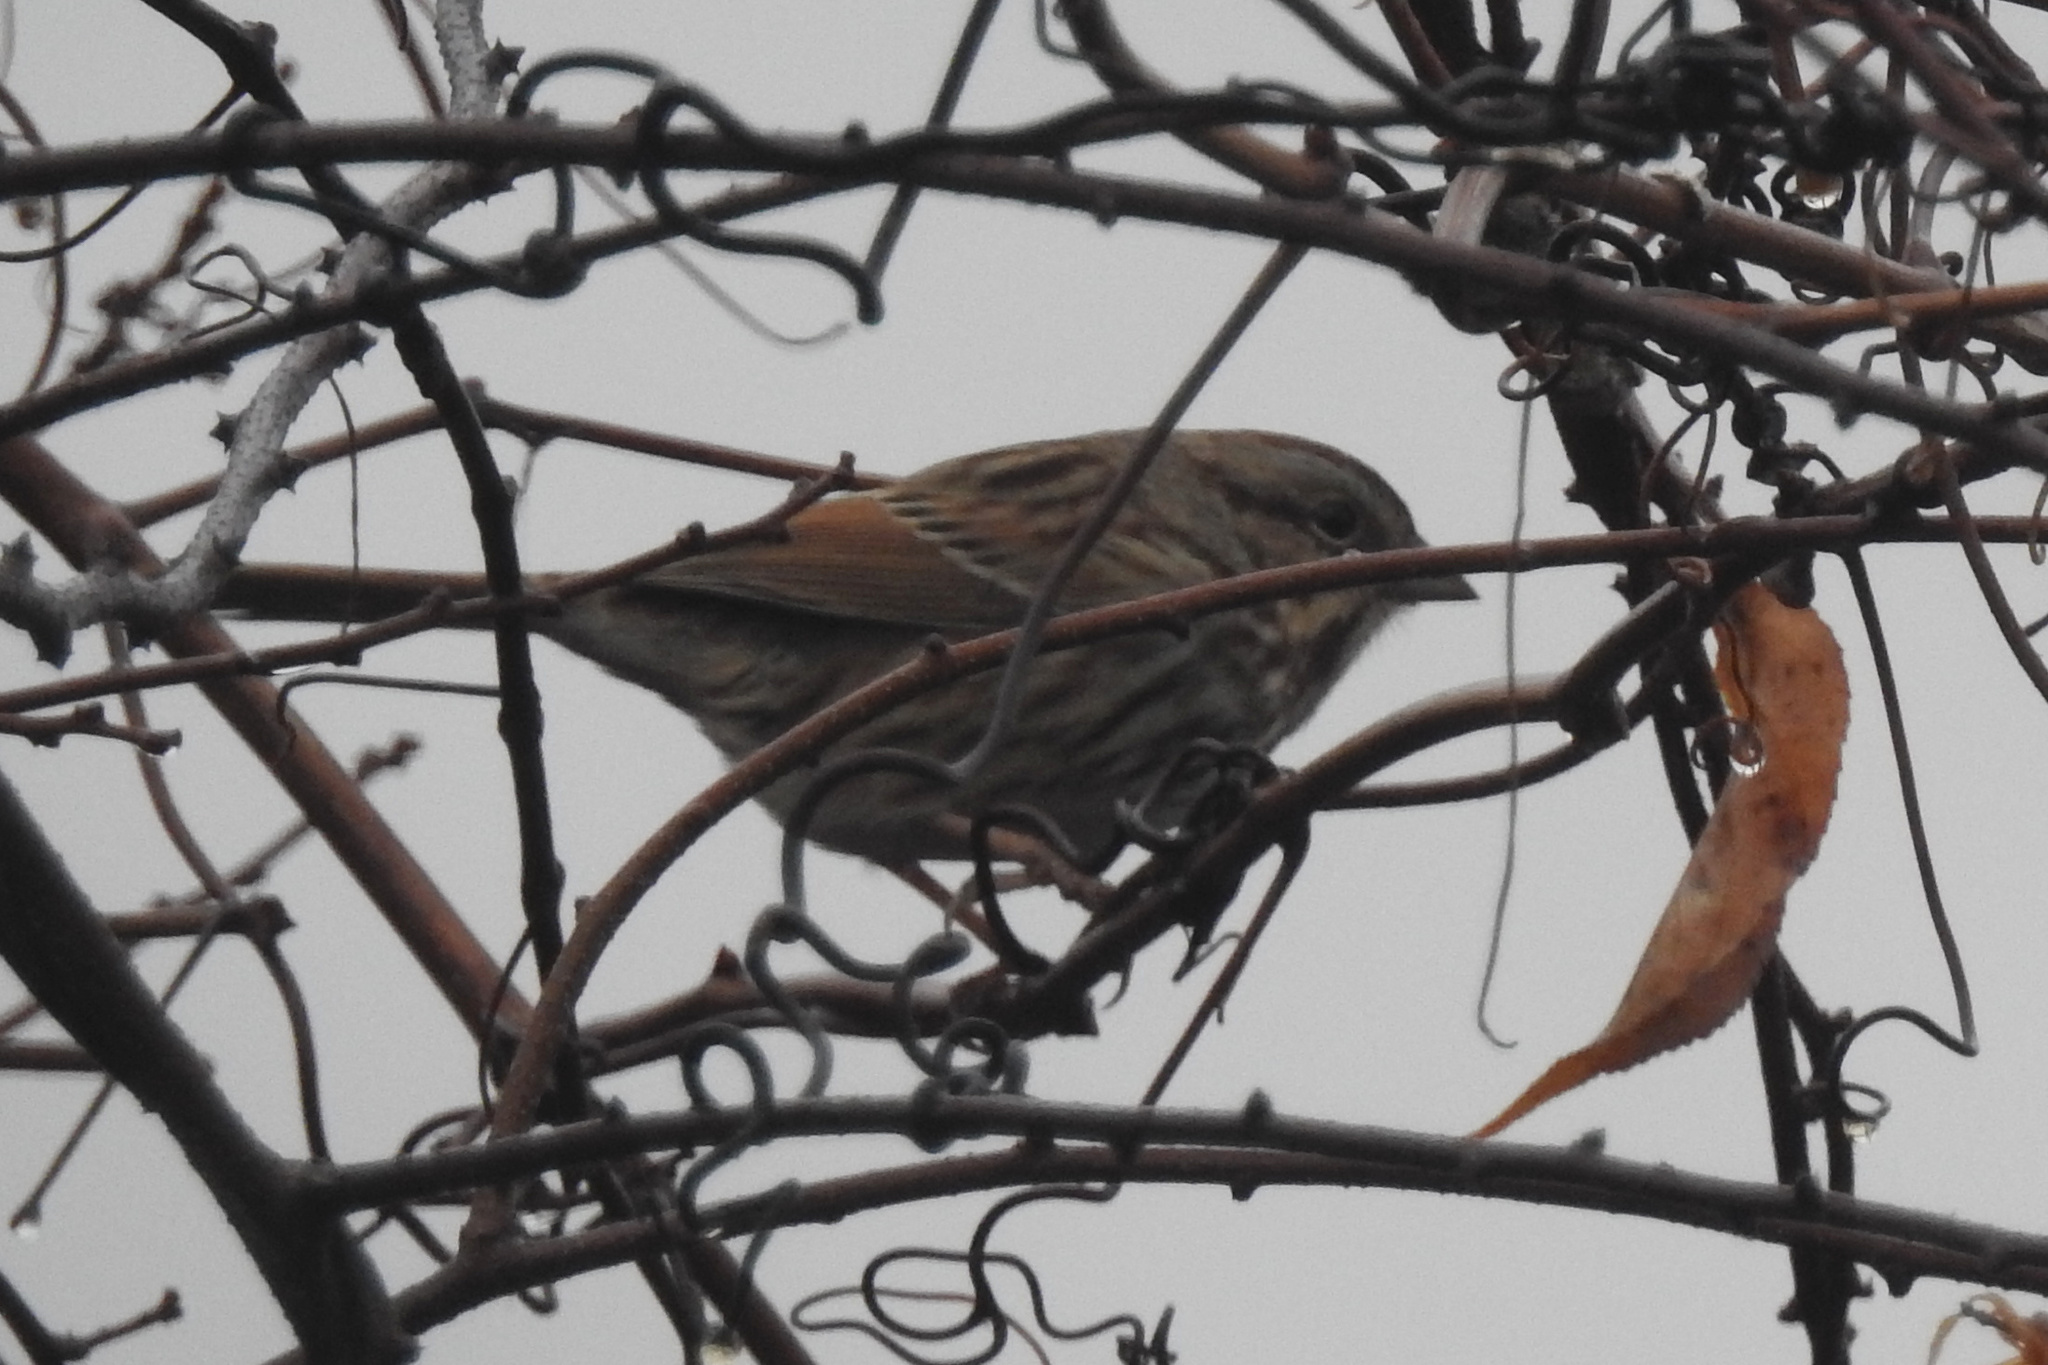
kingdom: Animalia
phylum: Chordata
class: Aves
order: Passeriformes
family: Passerellidae
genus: Melospiza
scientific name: Melospiza melodia
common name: Song sparrow
